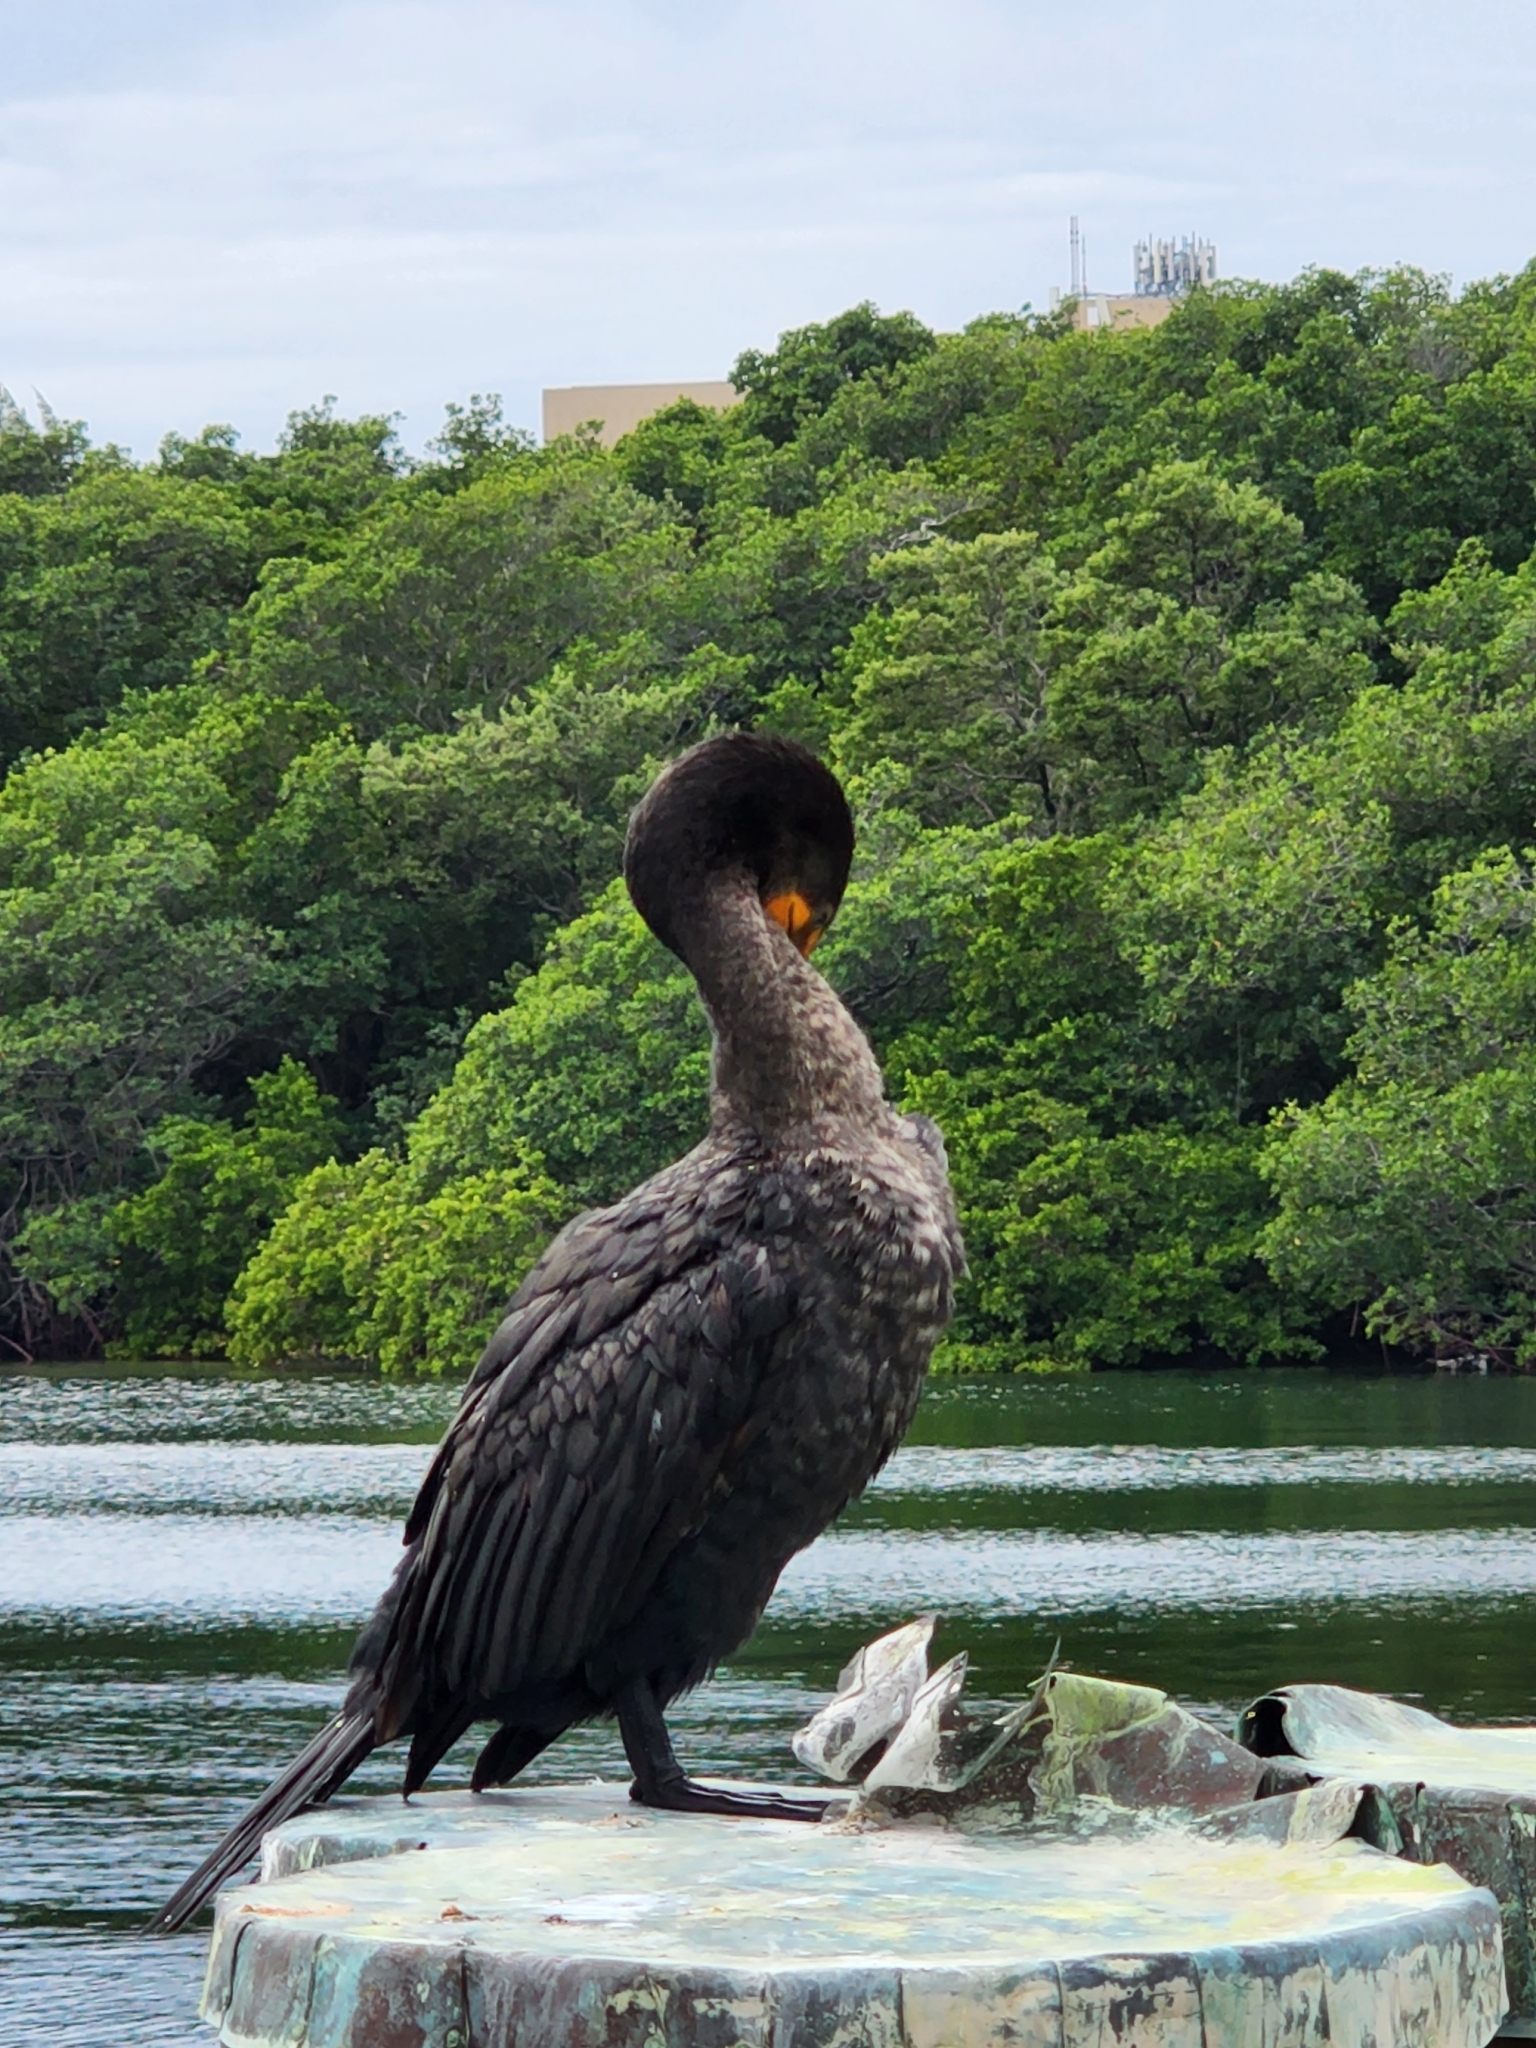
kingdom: Animalia
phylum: Chordata
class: Aves
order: Suliformes
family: Phalacrocoracidae
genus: Phalacrocorax
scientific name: Phalacrocorax auritus
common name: Double-crested cormorant
